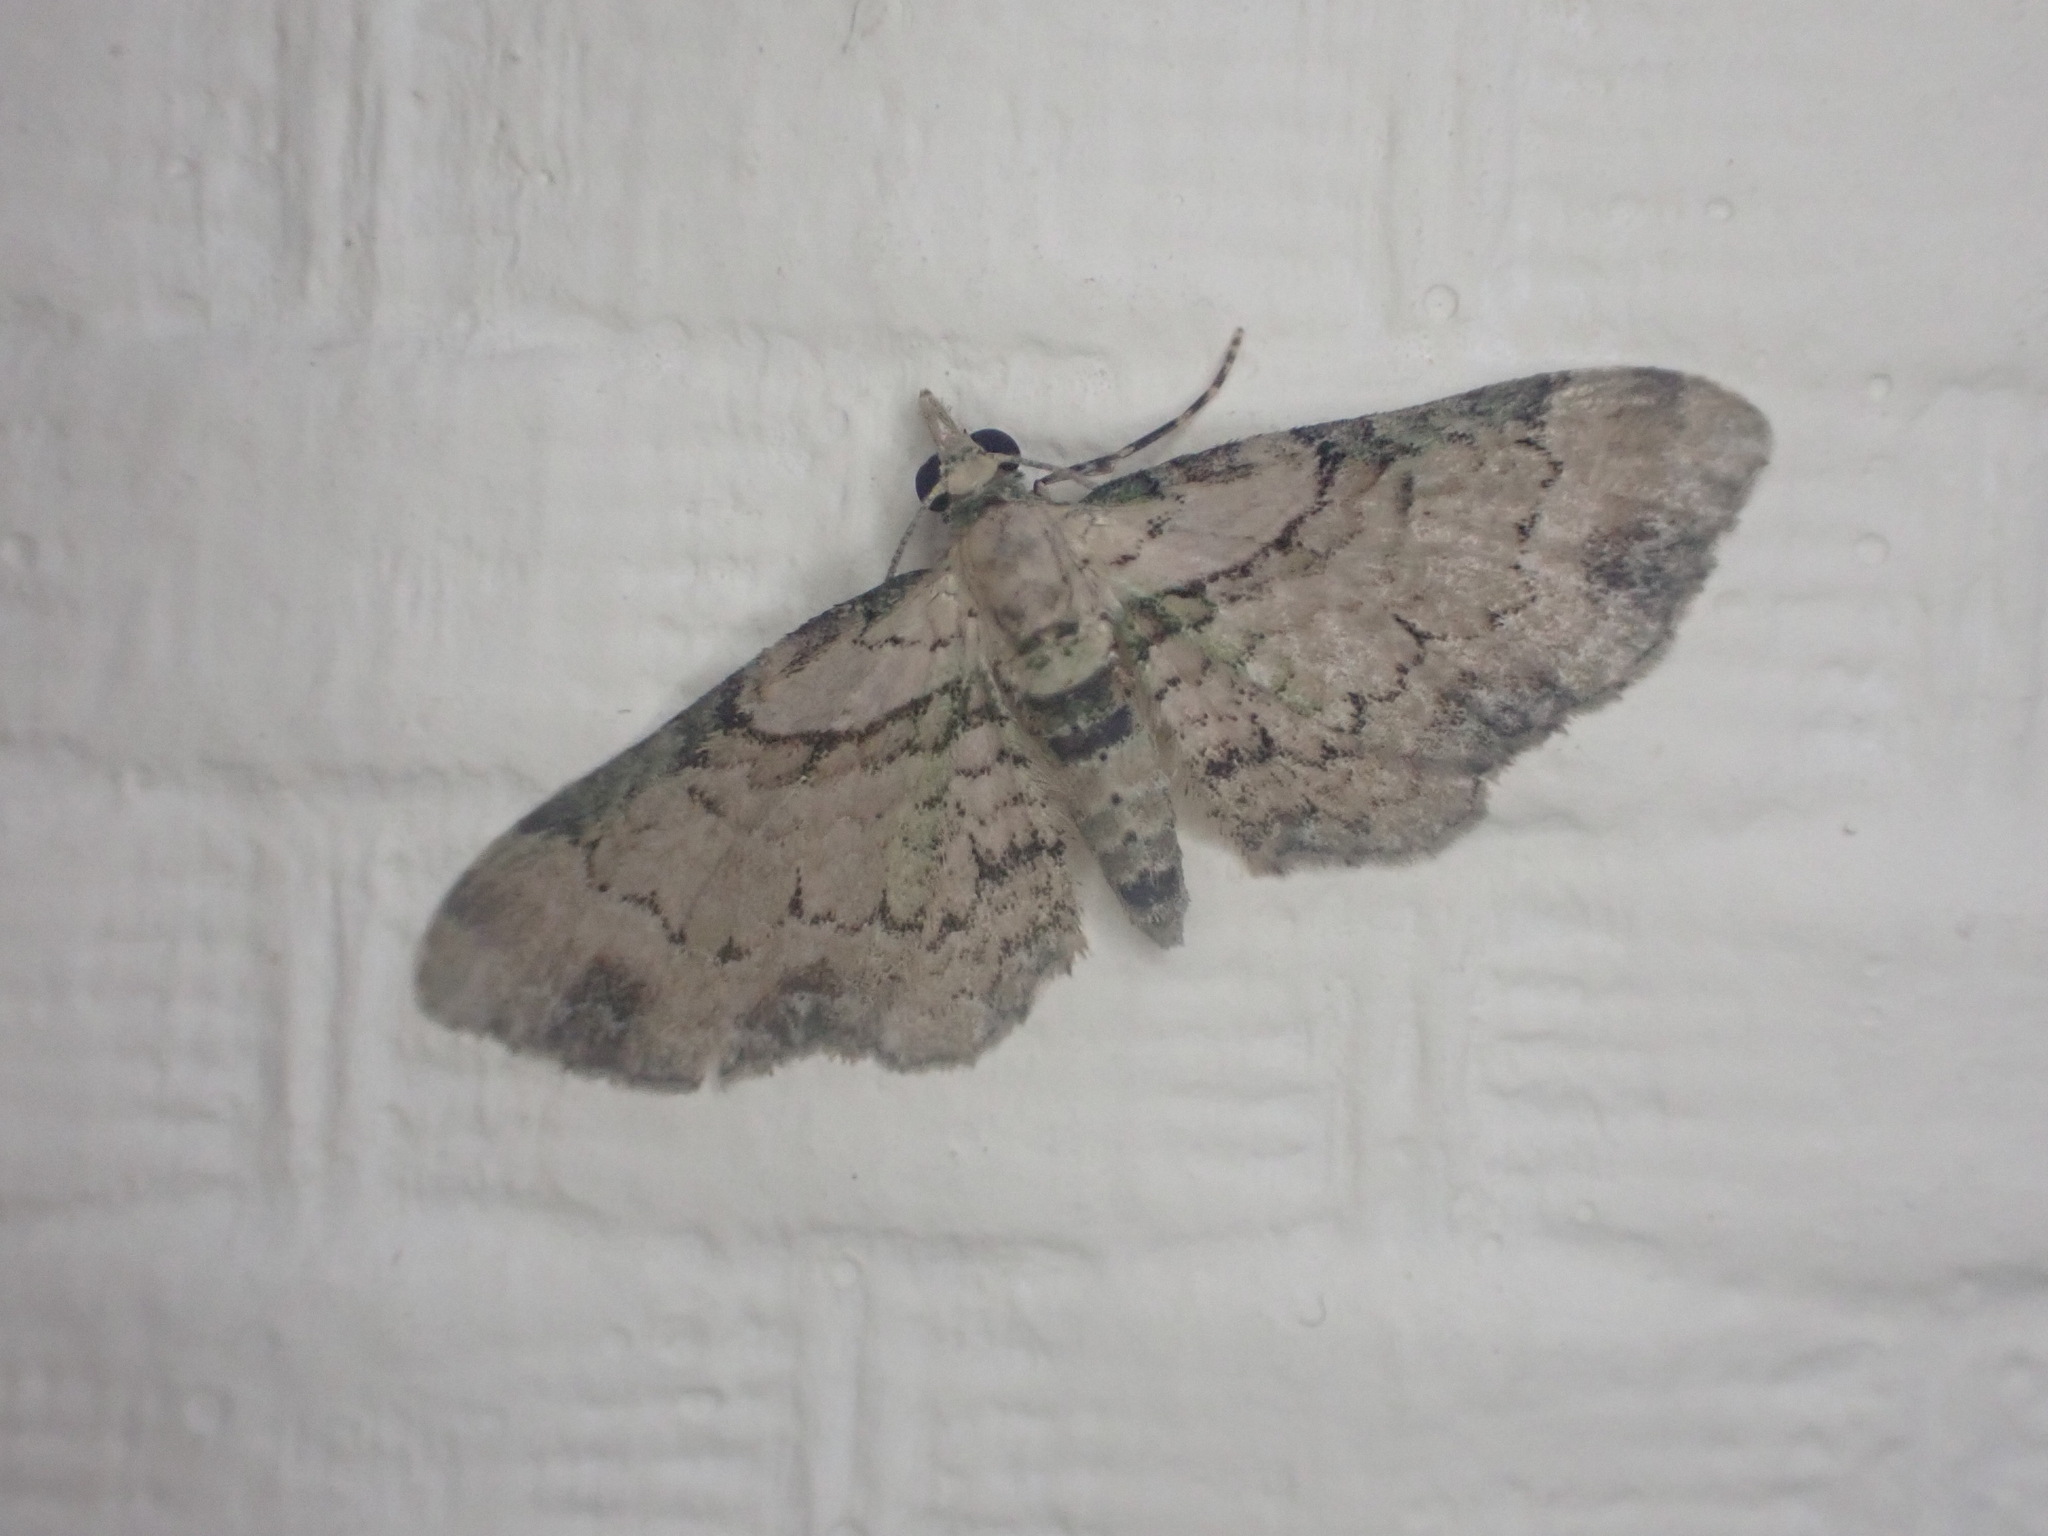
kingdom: Animalia
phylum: Arthropoda
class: Insecta
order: Lepidoptera
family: Geometridae
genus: Chloroclystis
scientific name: Chloroclystis
